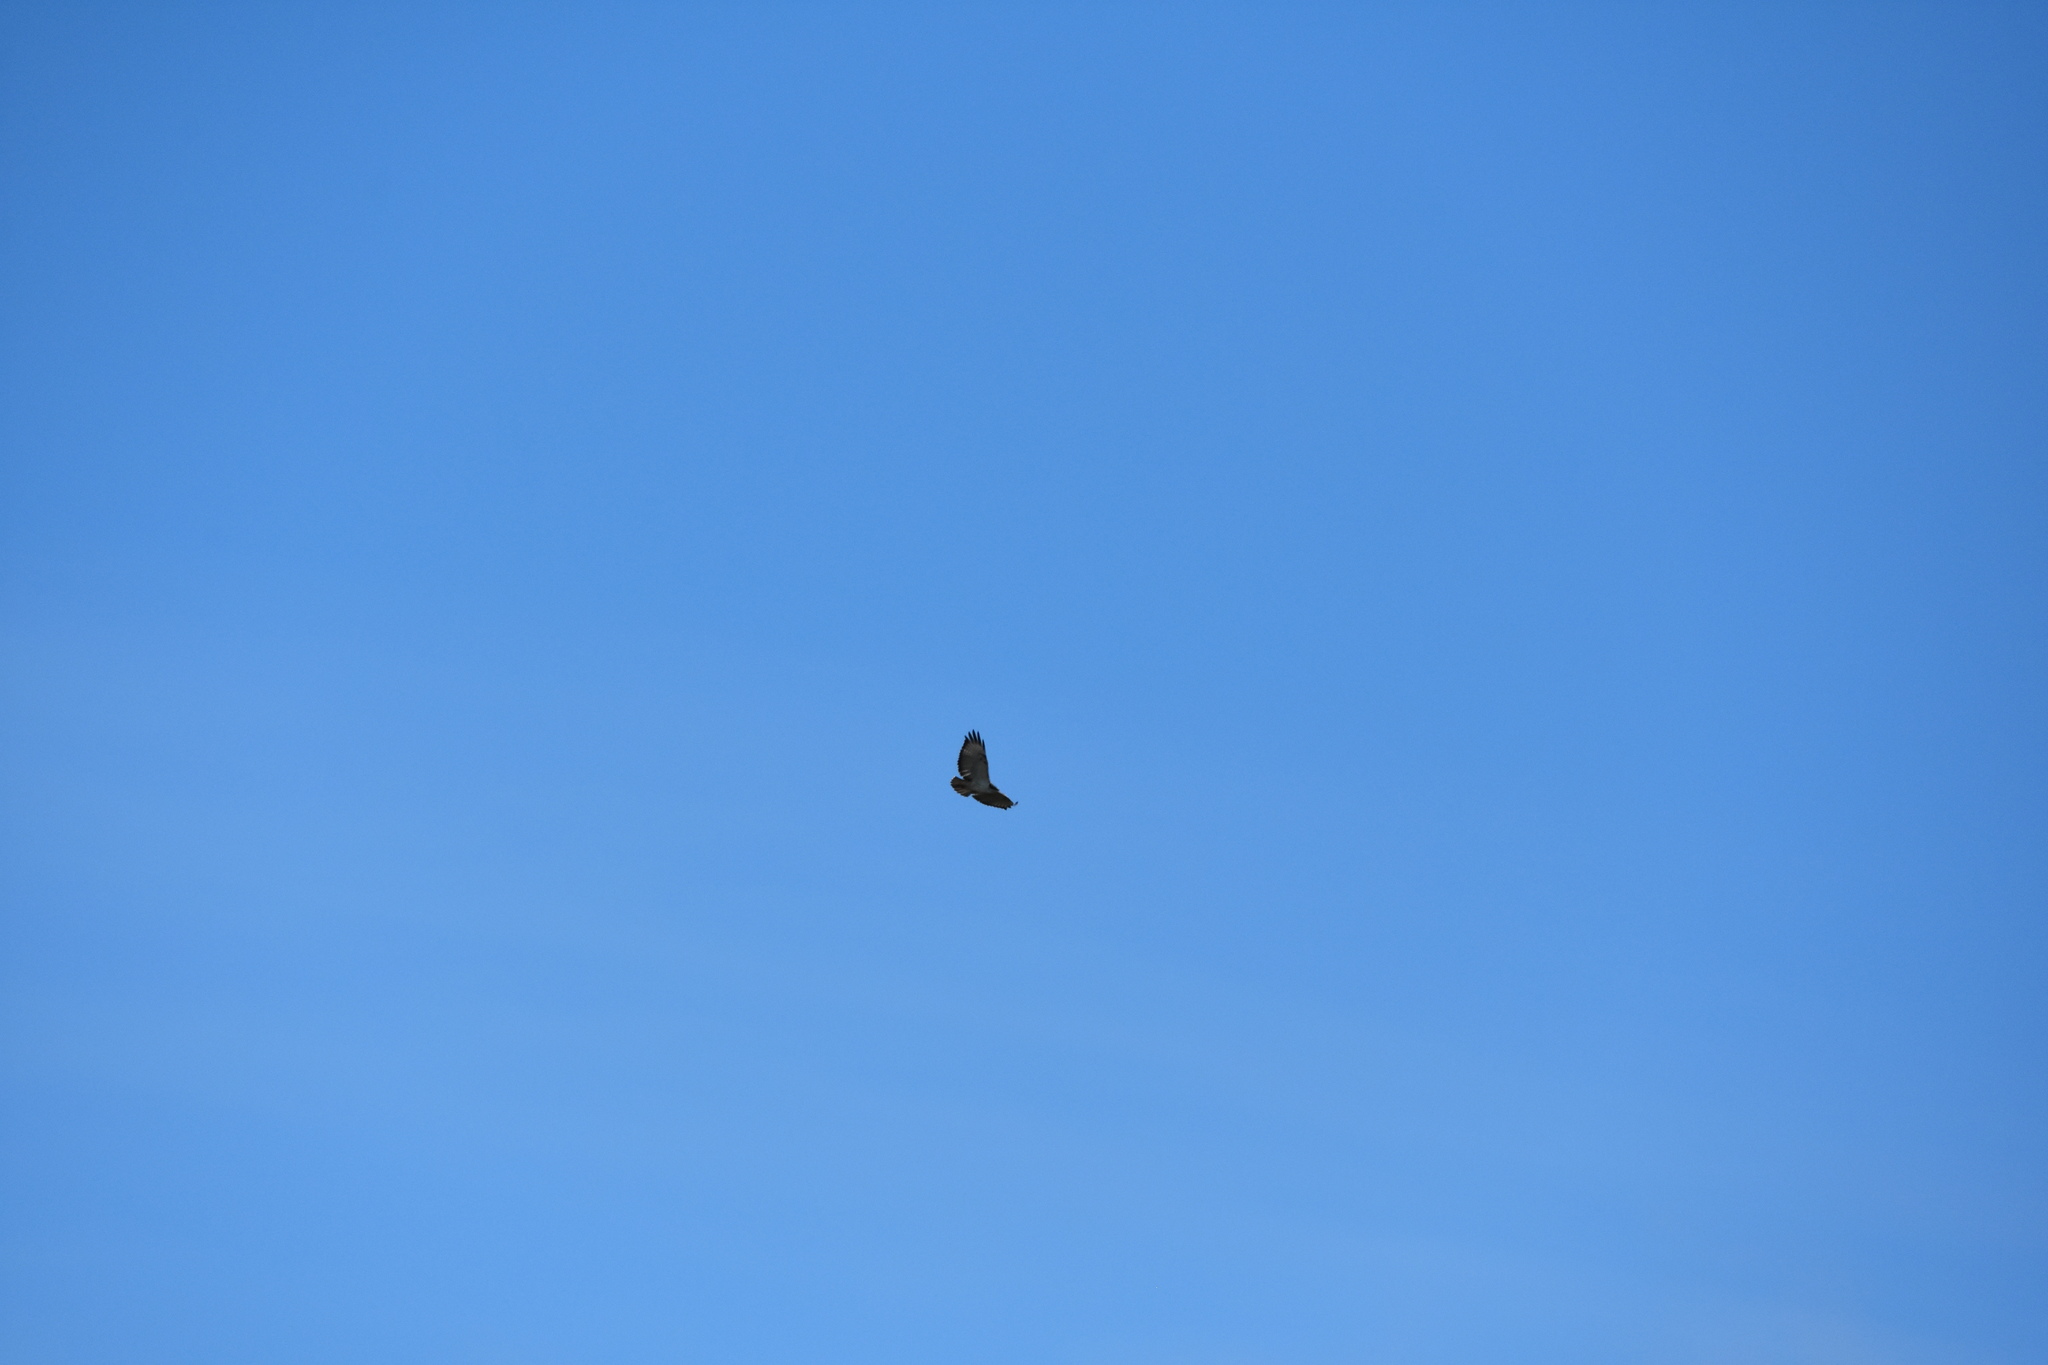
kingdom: Animalia
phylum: Chordata
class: Aves
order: Accipitriformes
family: Accipitridae
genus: Buteo
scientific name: Buteo augur
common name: Augur buzzard
